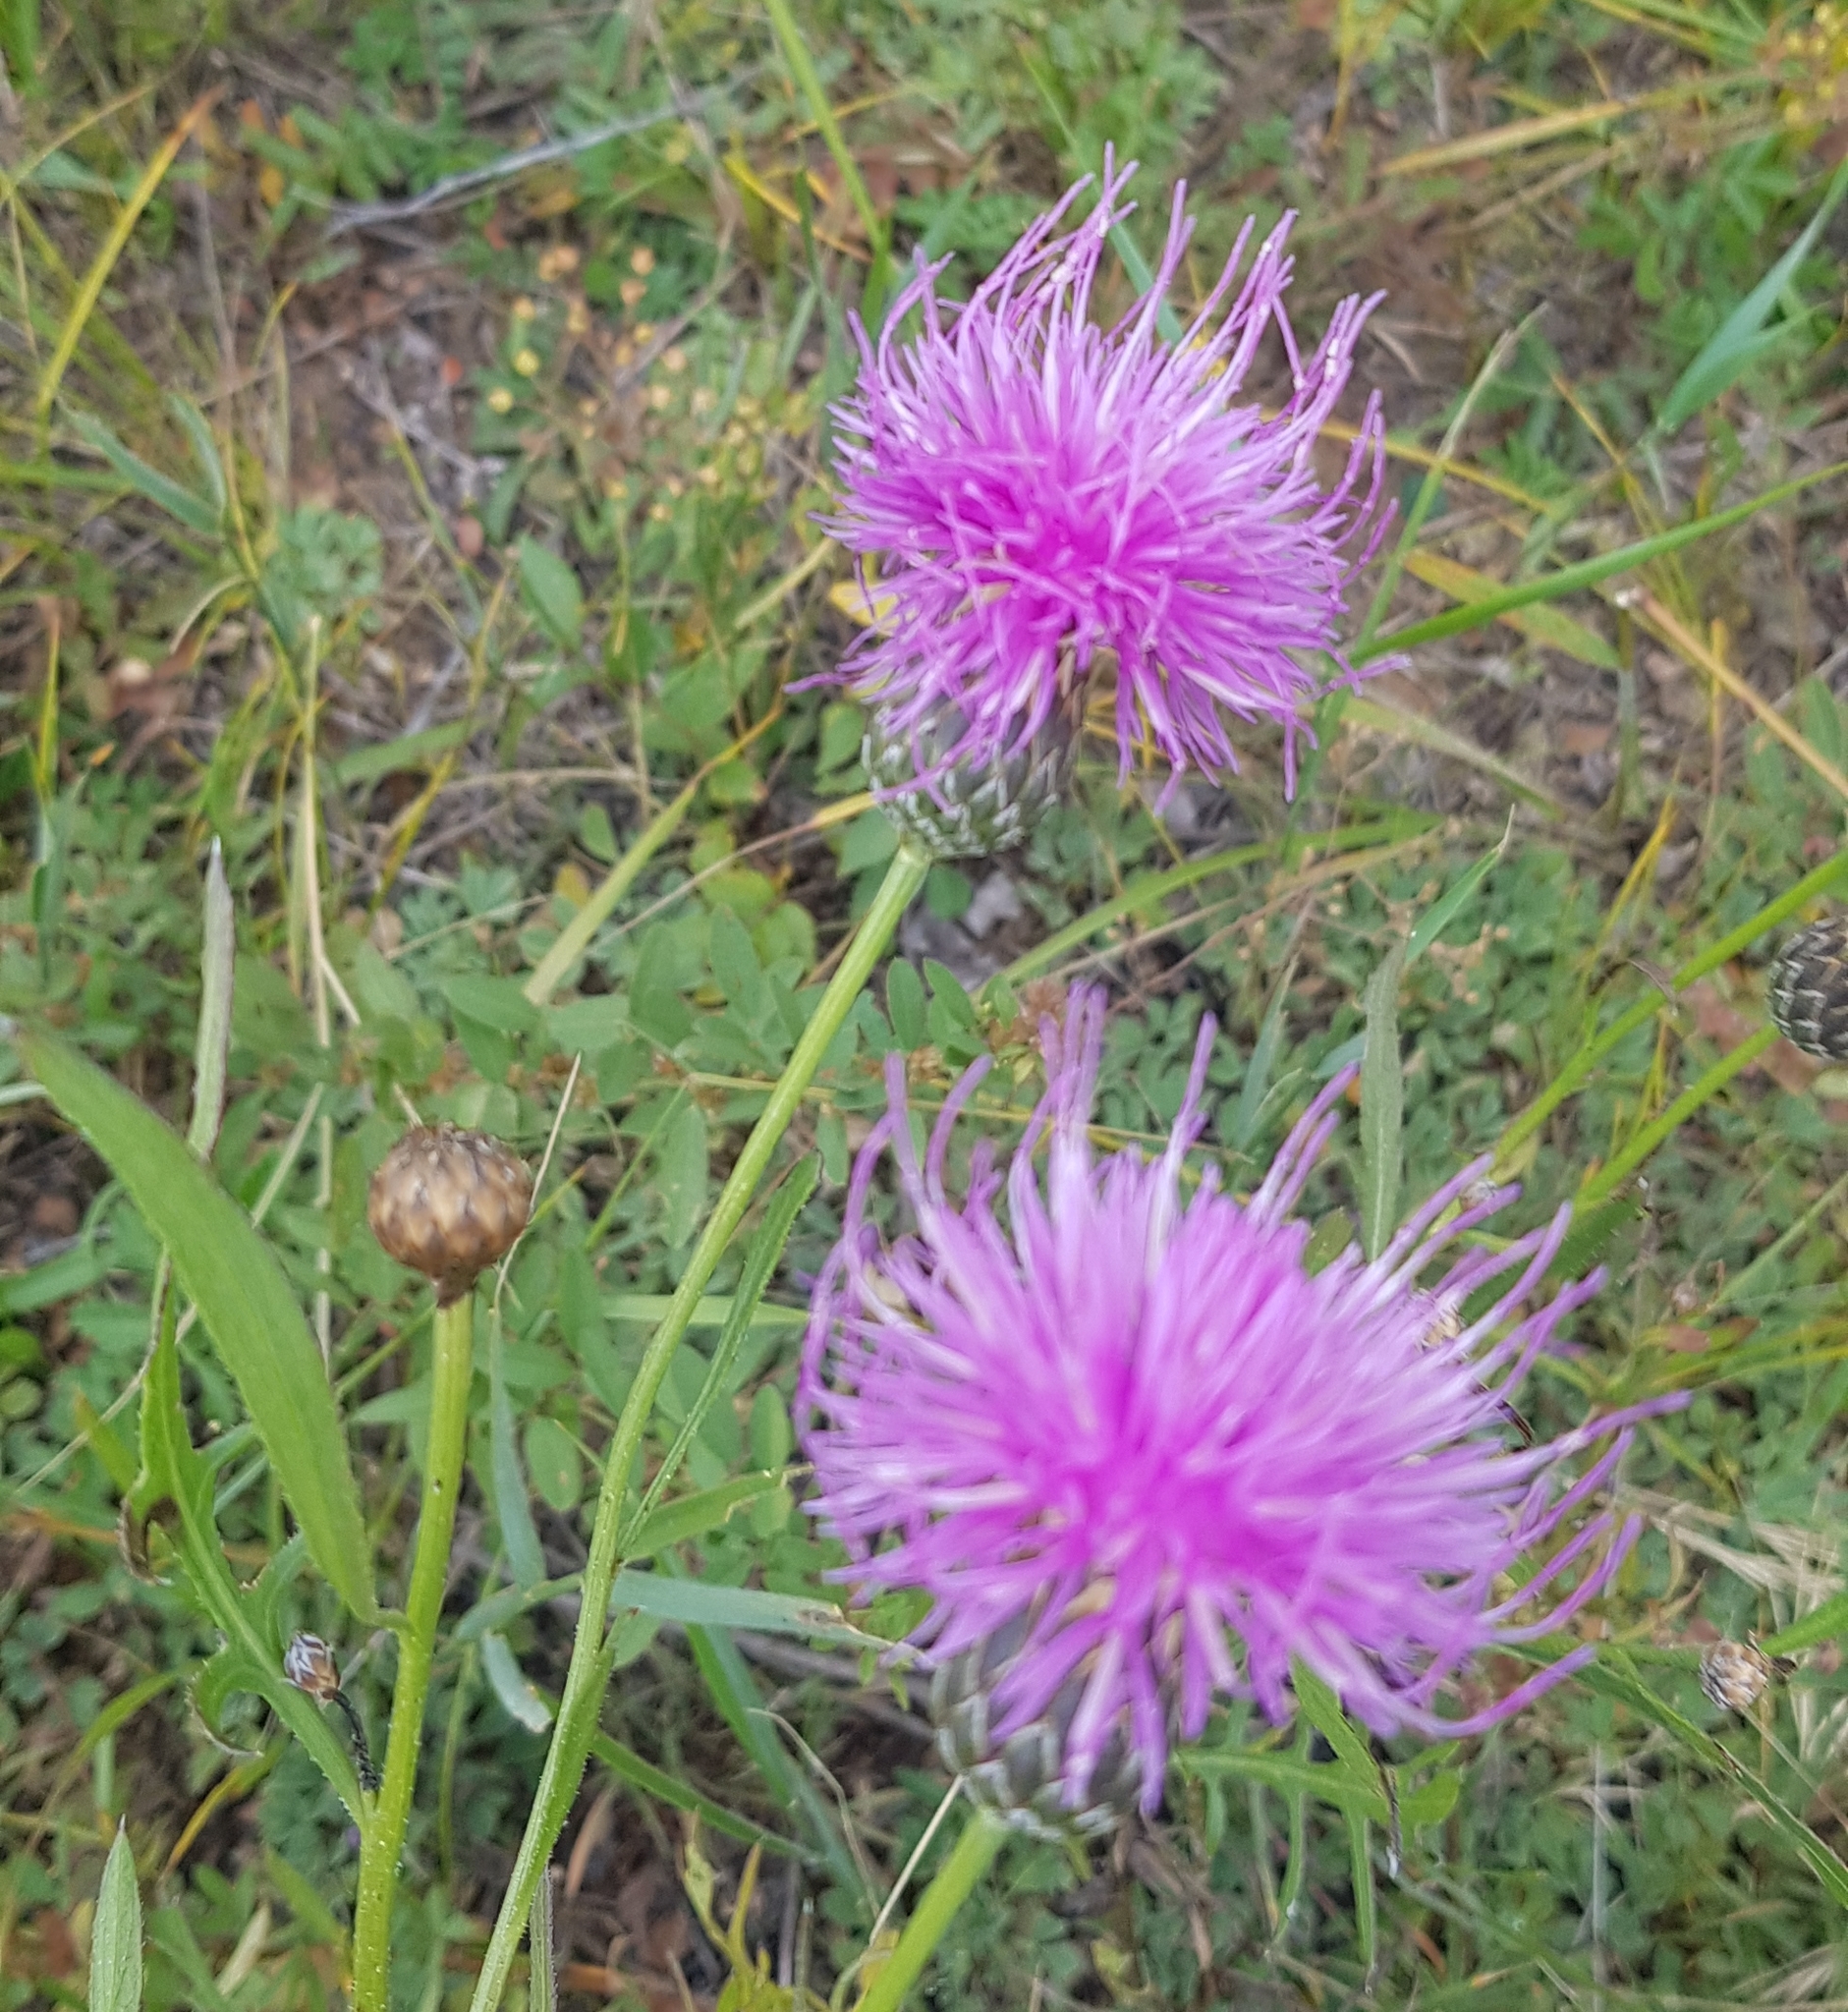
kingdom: Plantae
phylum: Tracheophyta
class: Magnoliopsida
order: Asterales
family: Asteraceae
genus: Klasea
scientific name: Klasea centauroides
